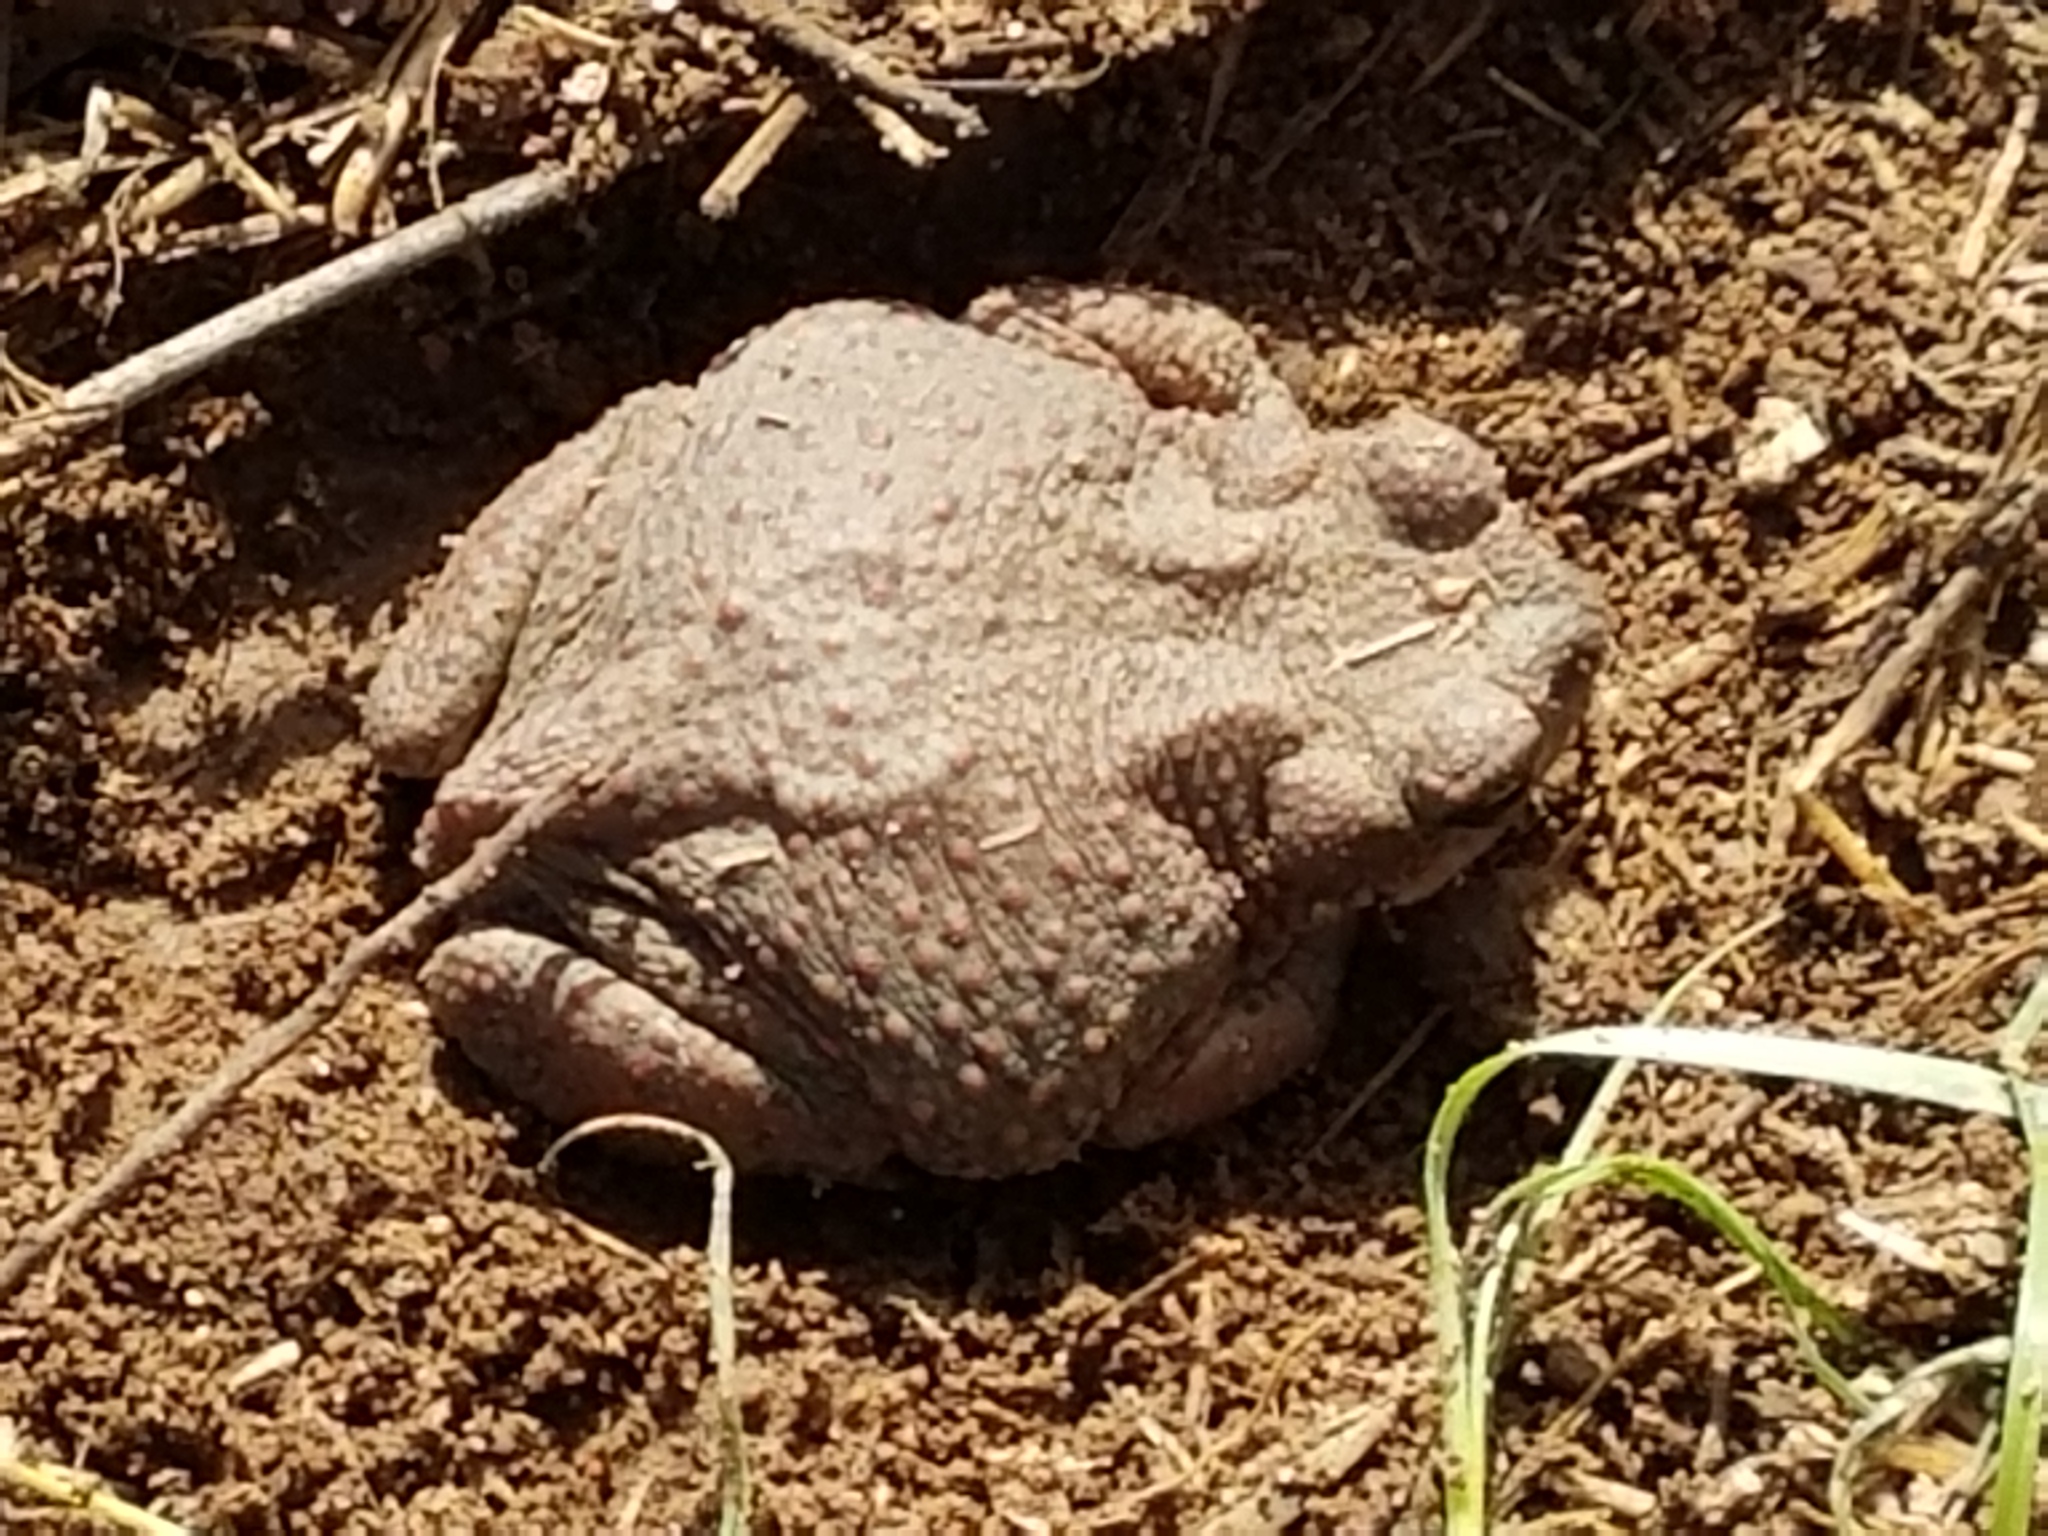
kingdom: Animalia
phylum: Chordata
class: Amphibia
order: Anura
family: Bufonidae
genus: Anaxyrus
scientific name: Anaxyrus speciosus
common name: Texas toad
